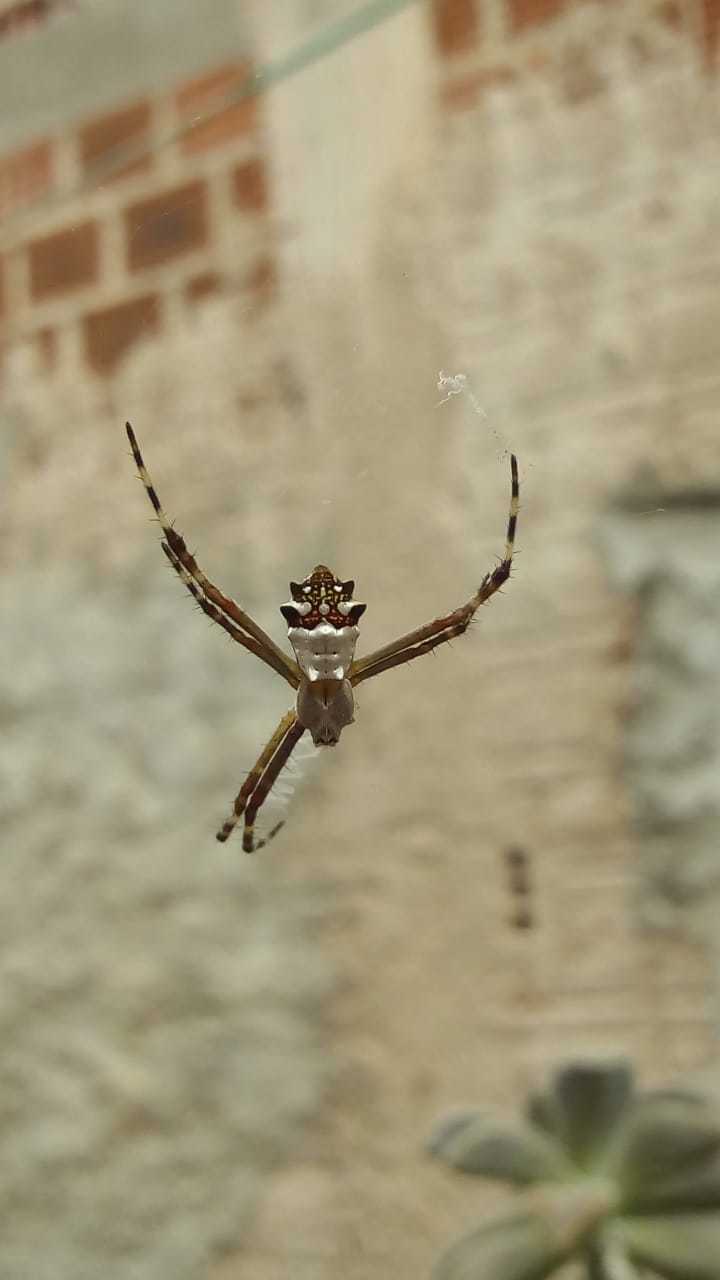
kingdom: Animalia
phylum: Arthropoda
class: Arachnida
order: Araneae
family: Araneidae
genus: Argiope
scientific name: Argiope argentata
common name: Orb weavers
